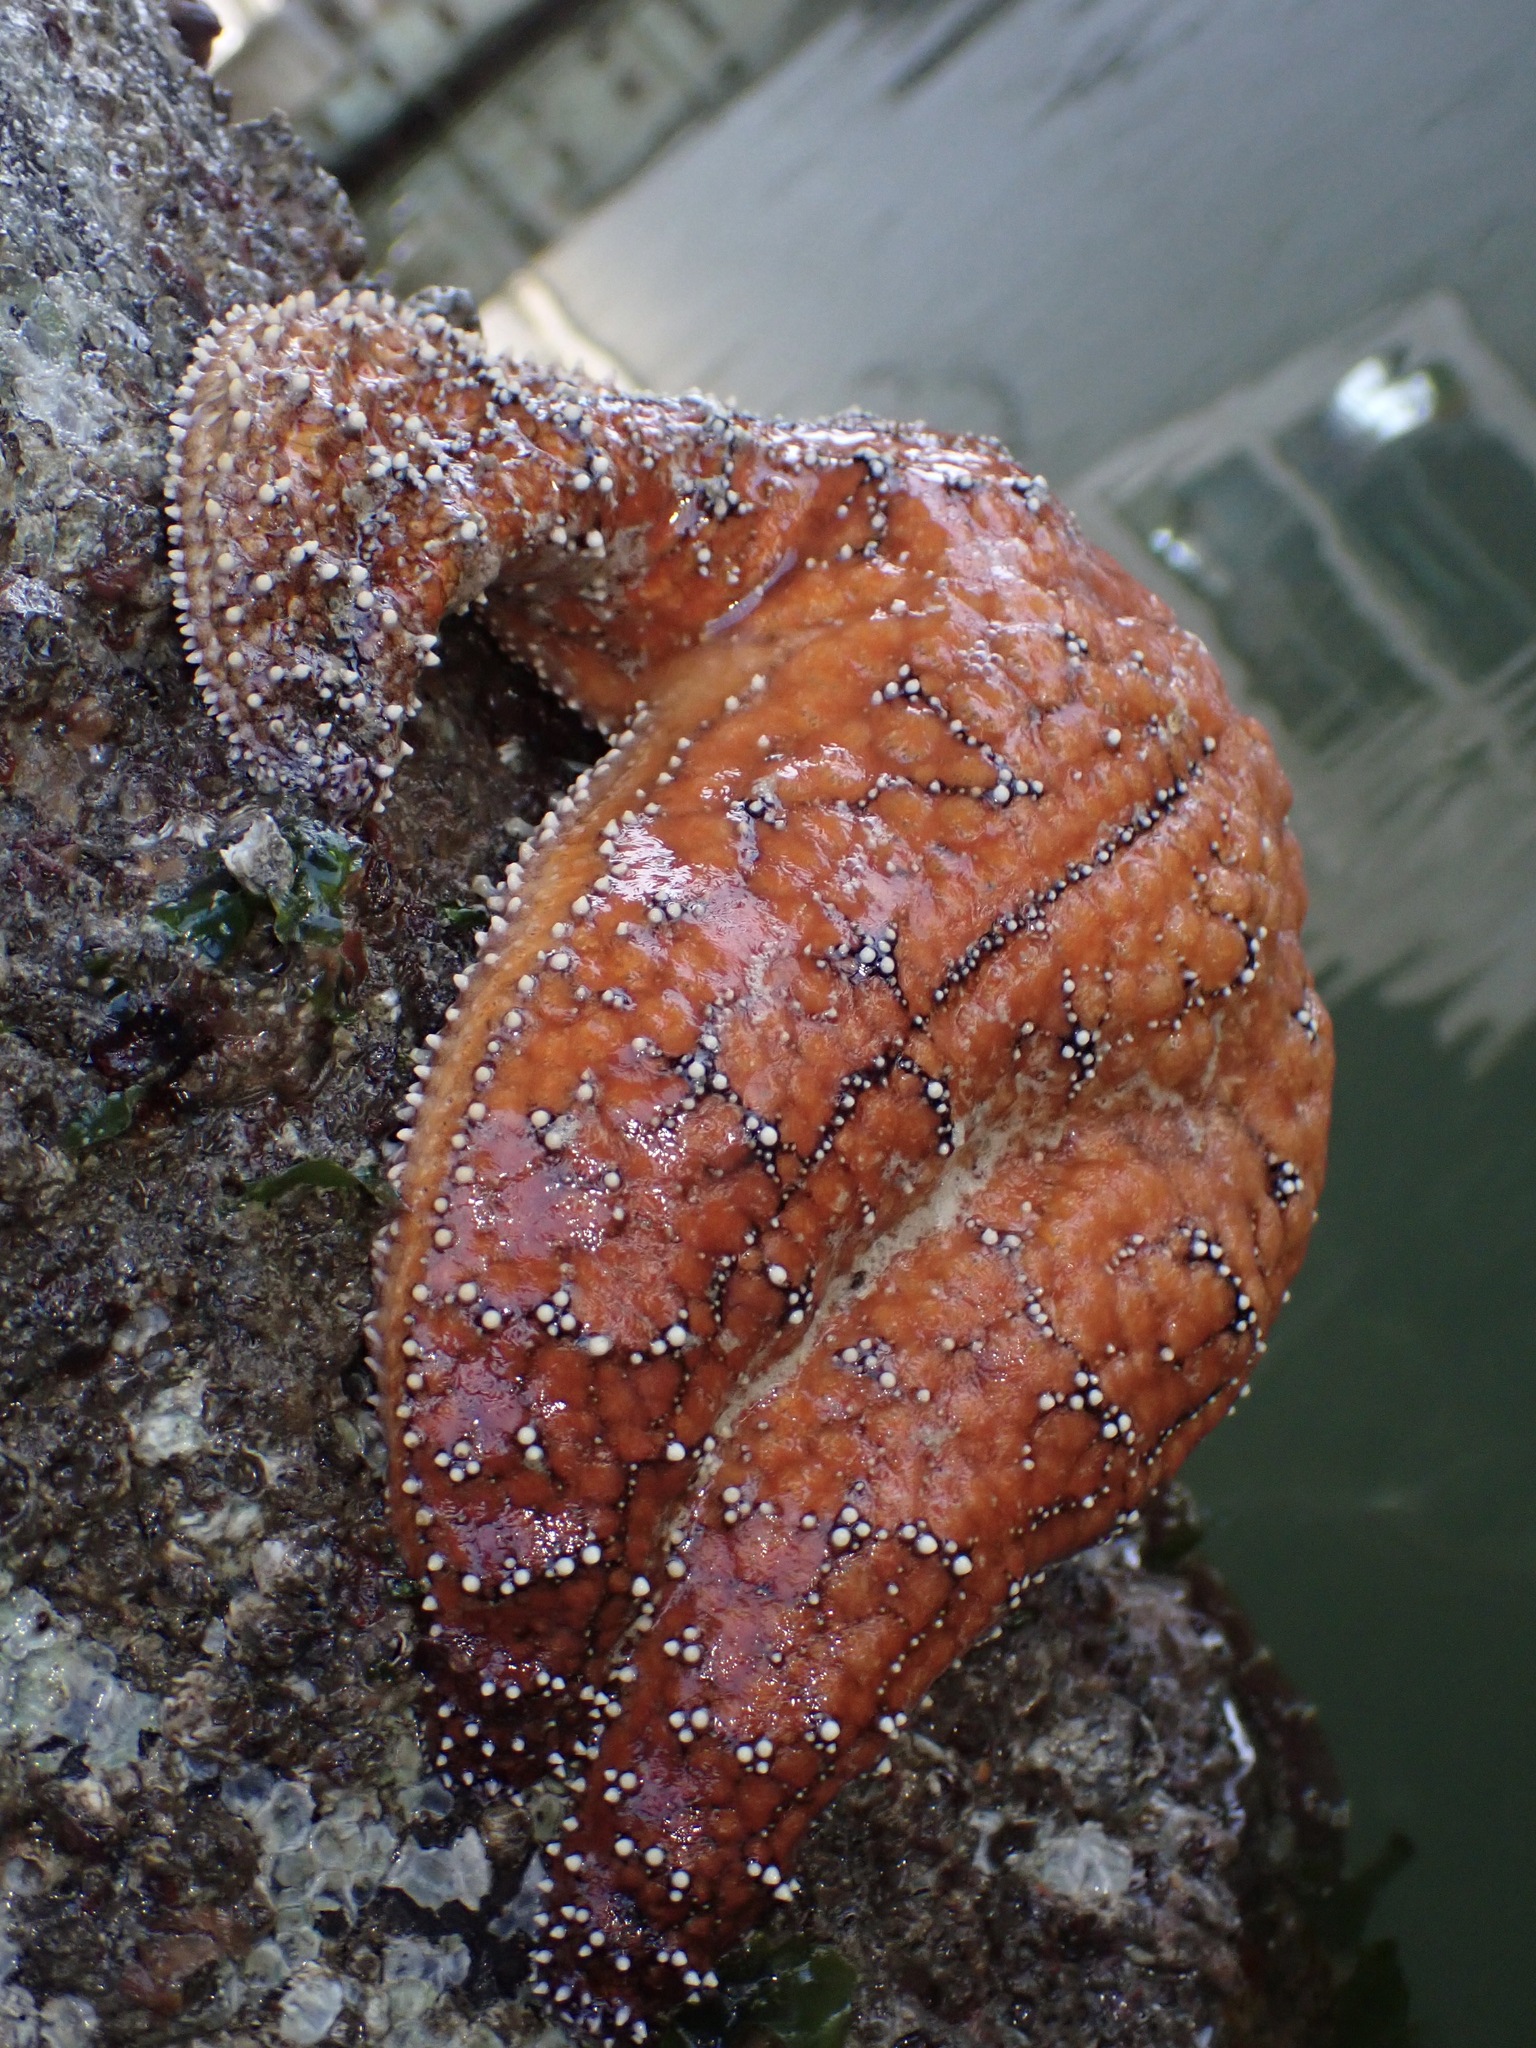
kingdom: Animalia
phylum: Echinodermata
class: Asteroidea
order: Forcipulatida
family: Asteriidae
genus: Pisaster
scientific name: Pisaster ochraceus
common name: Ochre stars
